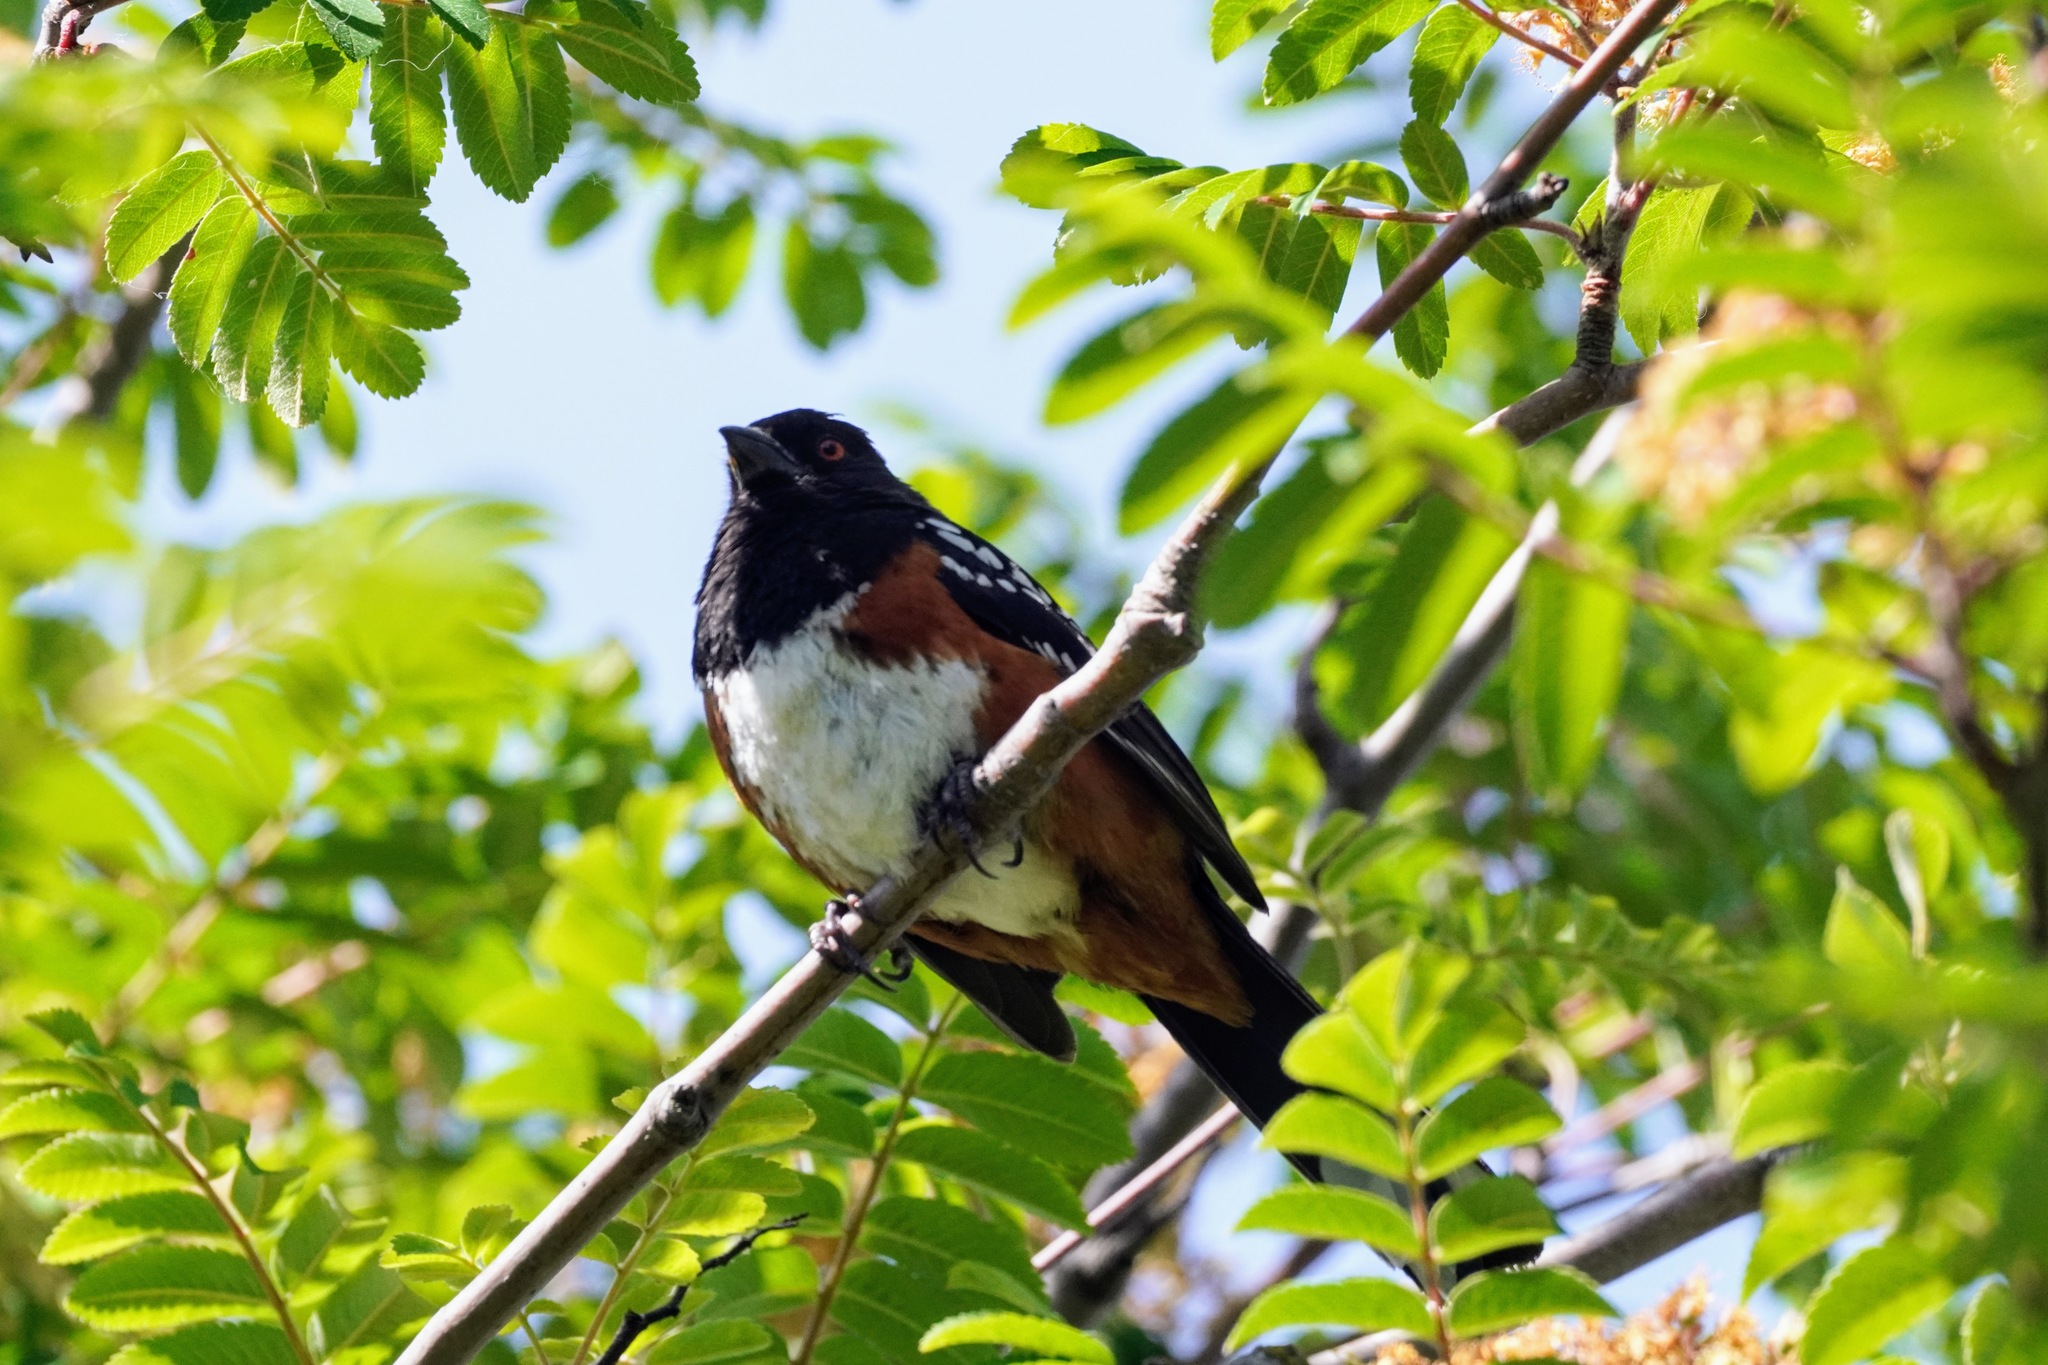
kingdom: Animalia
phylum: Chordata
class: Aves
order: Passeriformes
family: Passerellidae
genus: Pipilo
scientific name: Pipilo maculatus
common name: Spotted towhee
